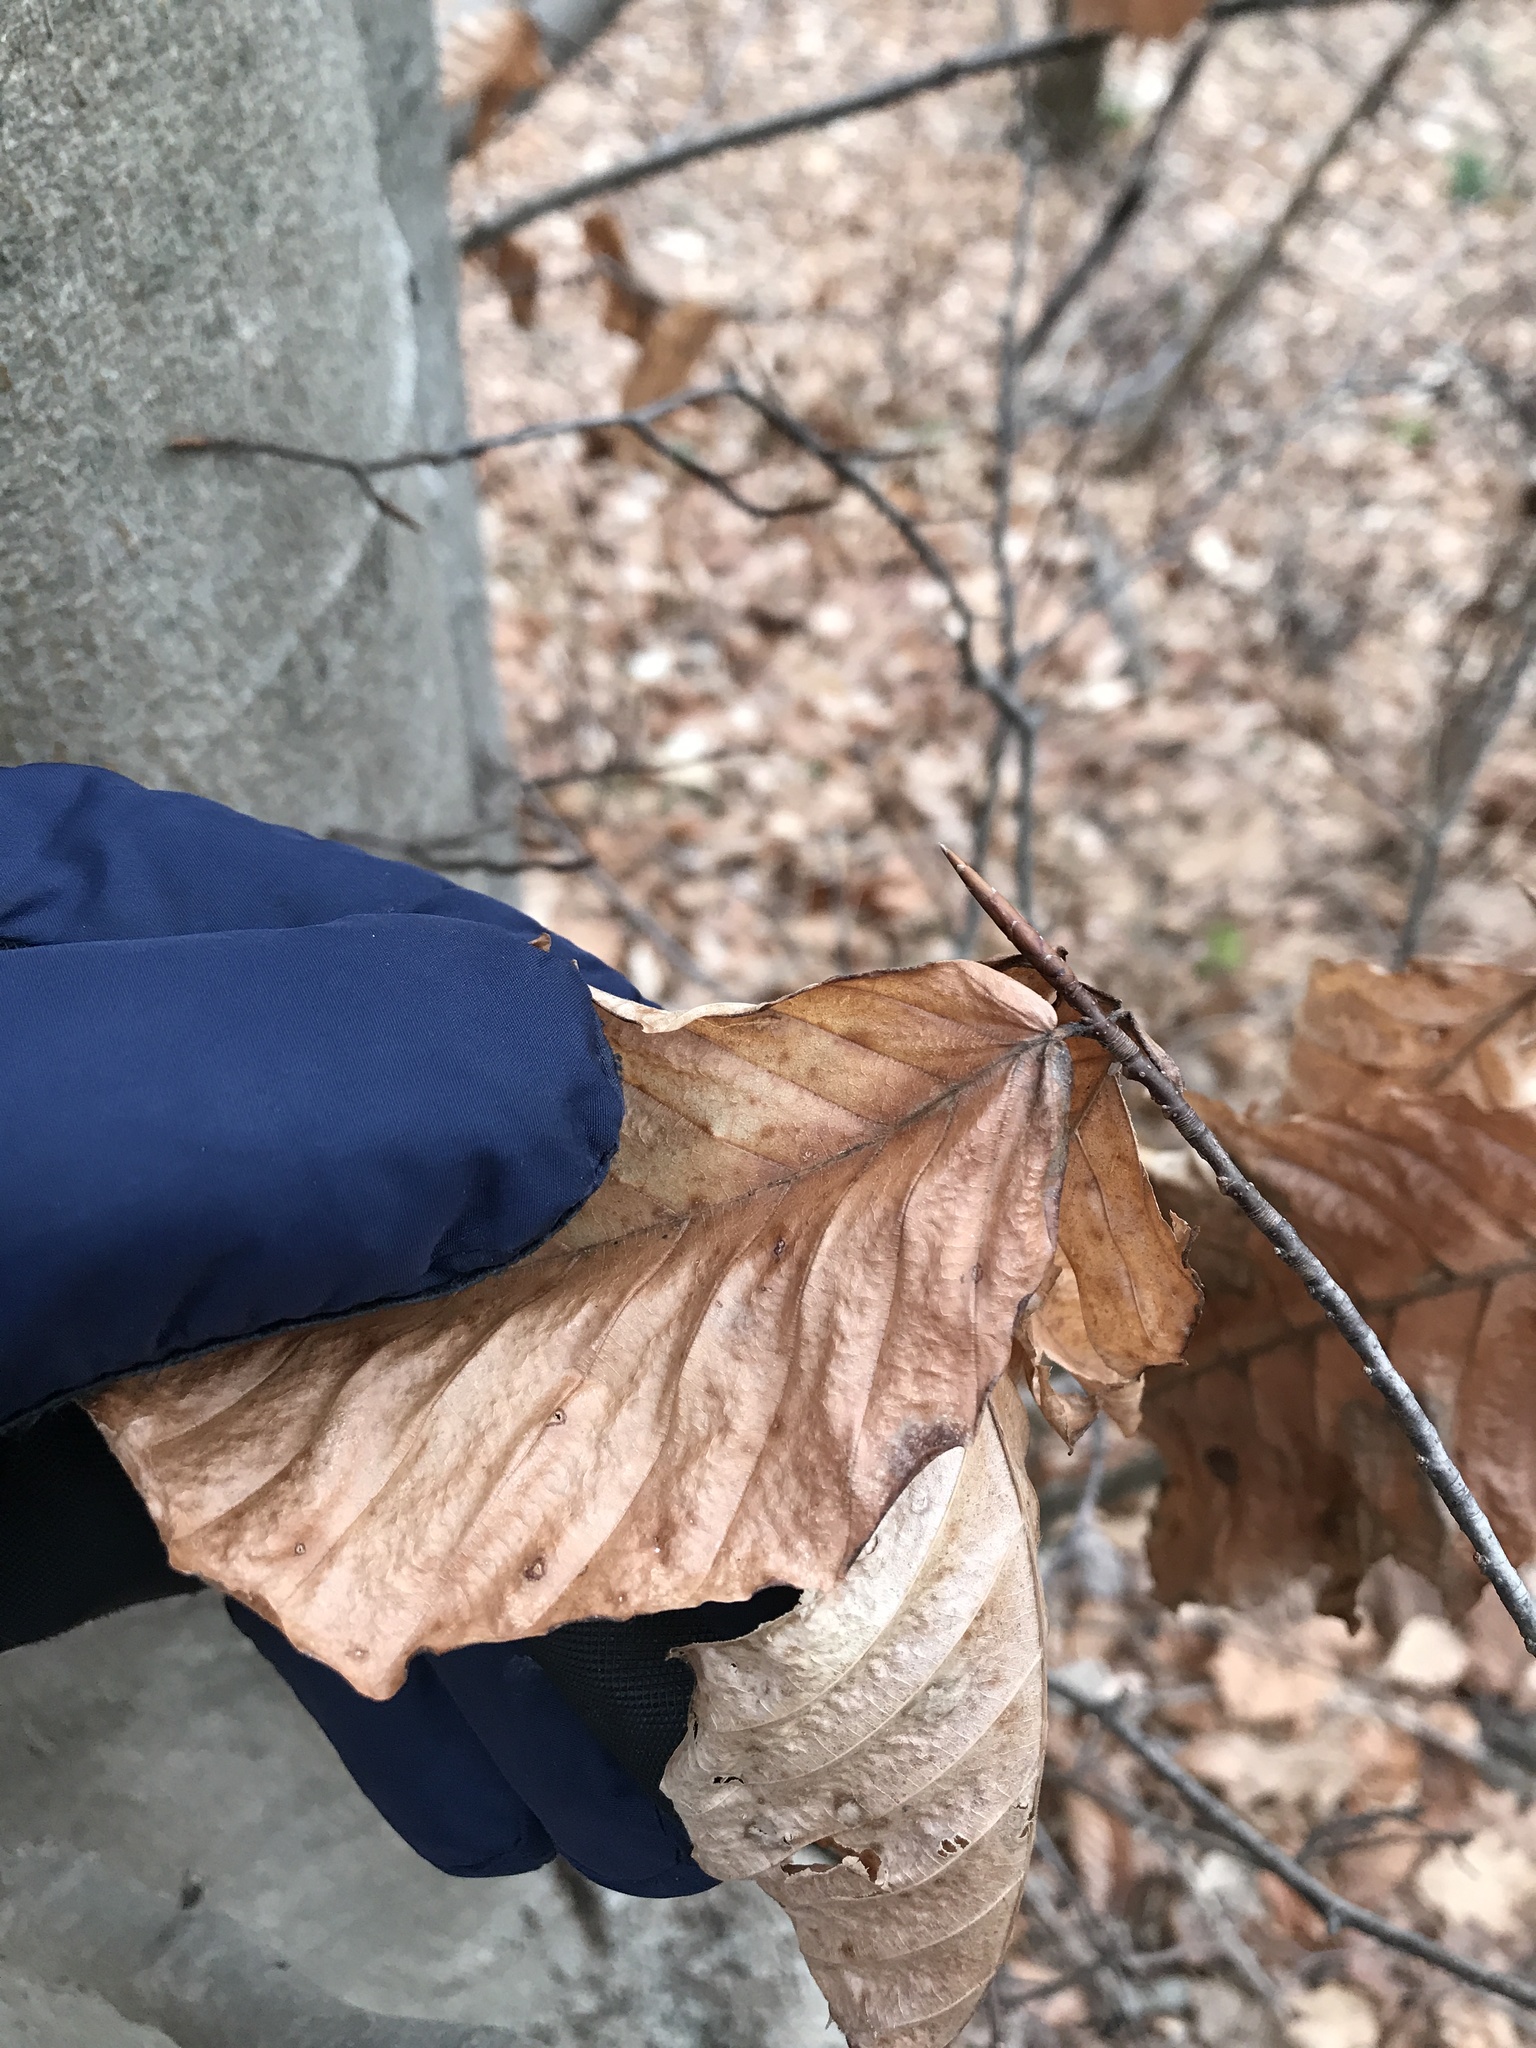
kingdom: Plantae
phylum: Tracheophyta
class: Magnoliopsida
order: Fagales
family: Fagaceae
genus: Fagus
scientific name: Fagus grandifolia
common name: American beech
